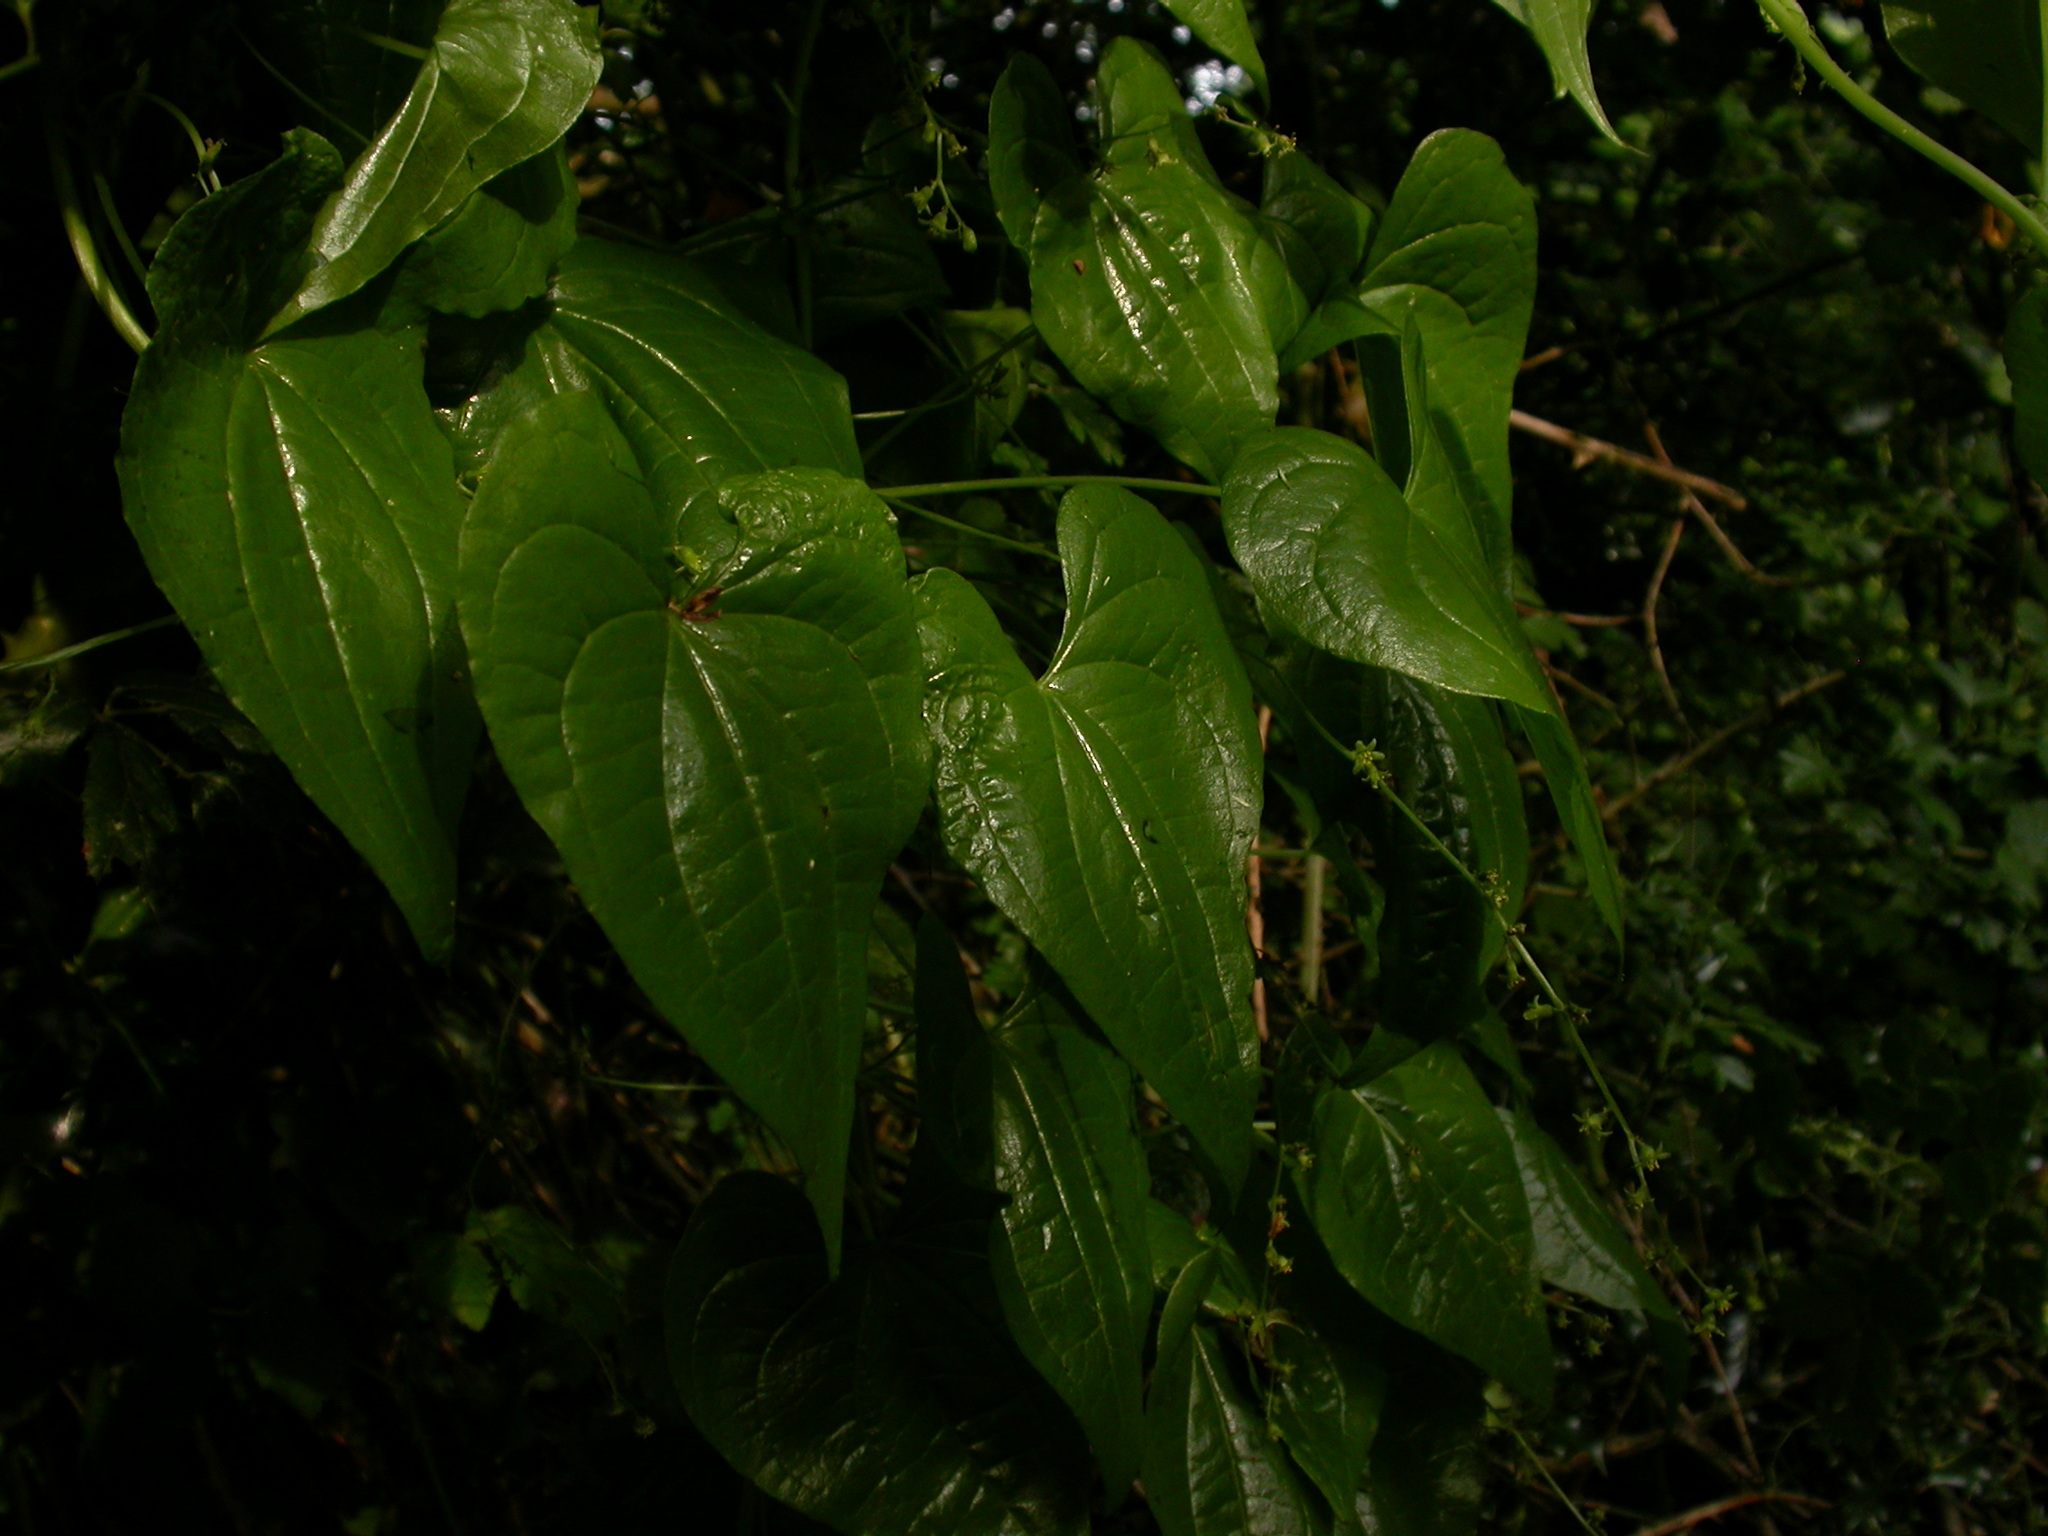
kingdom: Plantae
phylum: Tracheophyta
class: Liliopsida
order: Dioscoreales
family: Dioscoreaceae
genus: Dioscorea
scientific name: Dioscorea communis
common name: Black-bindweed
